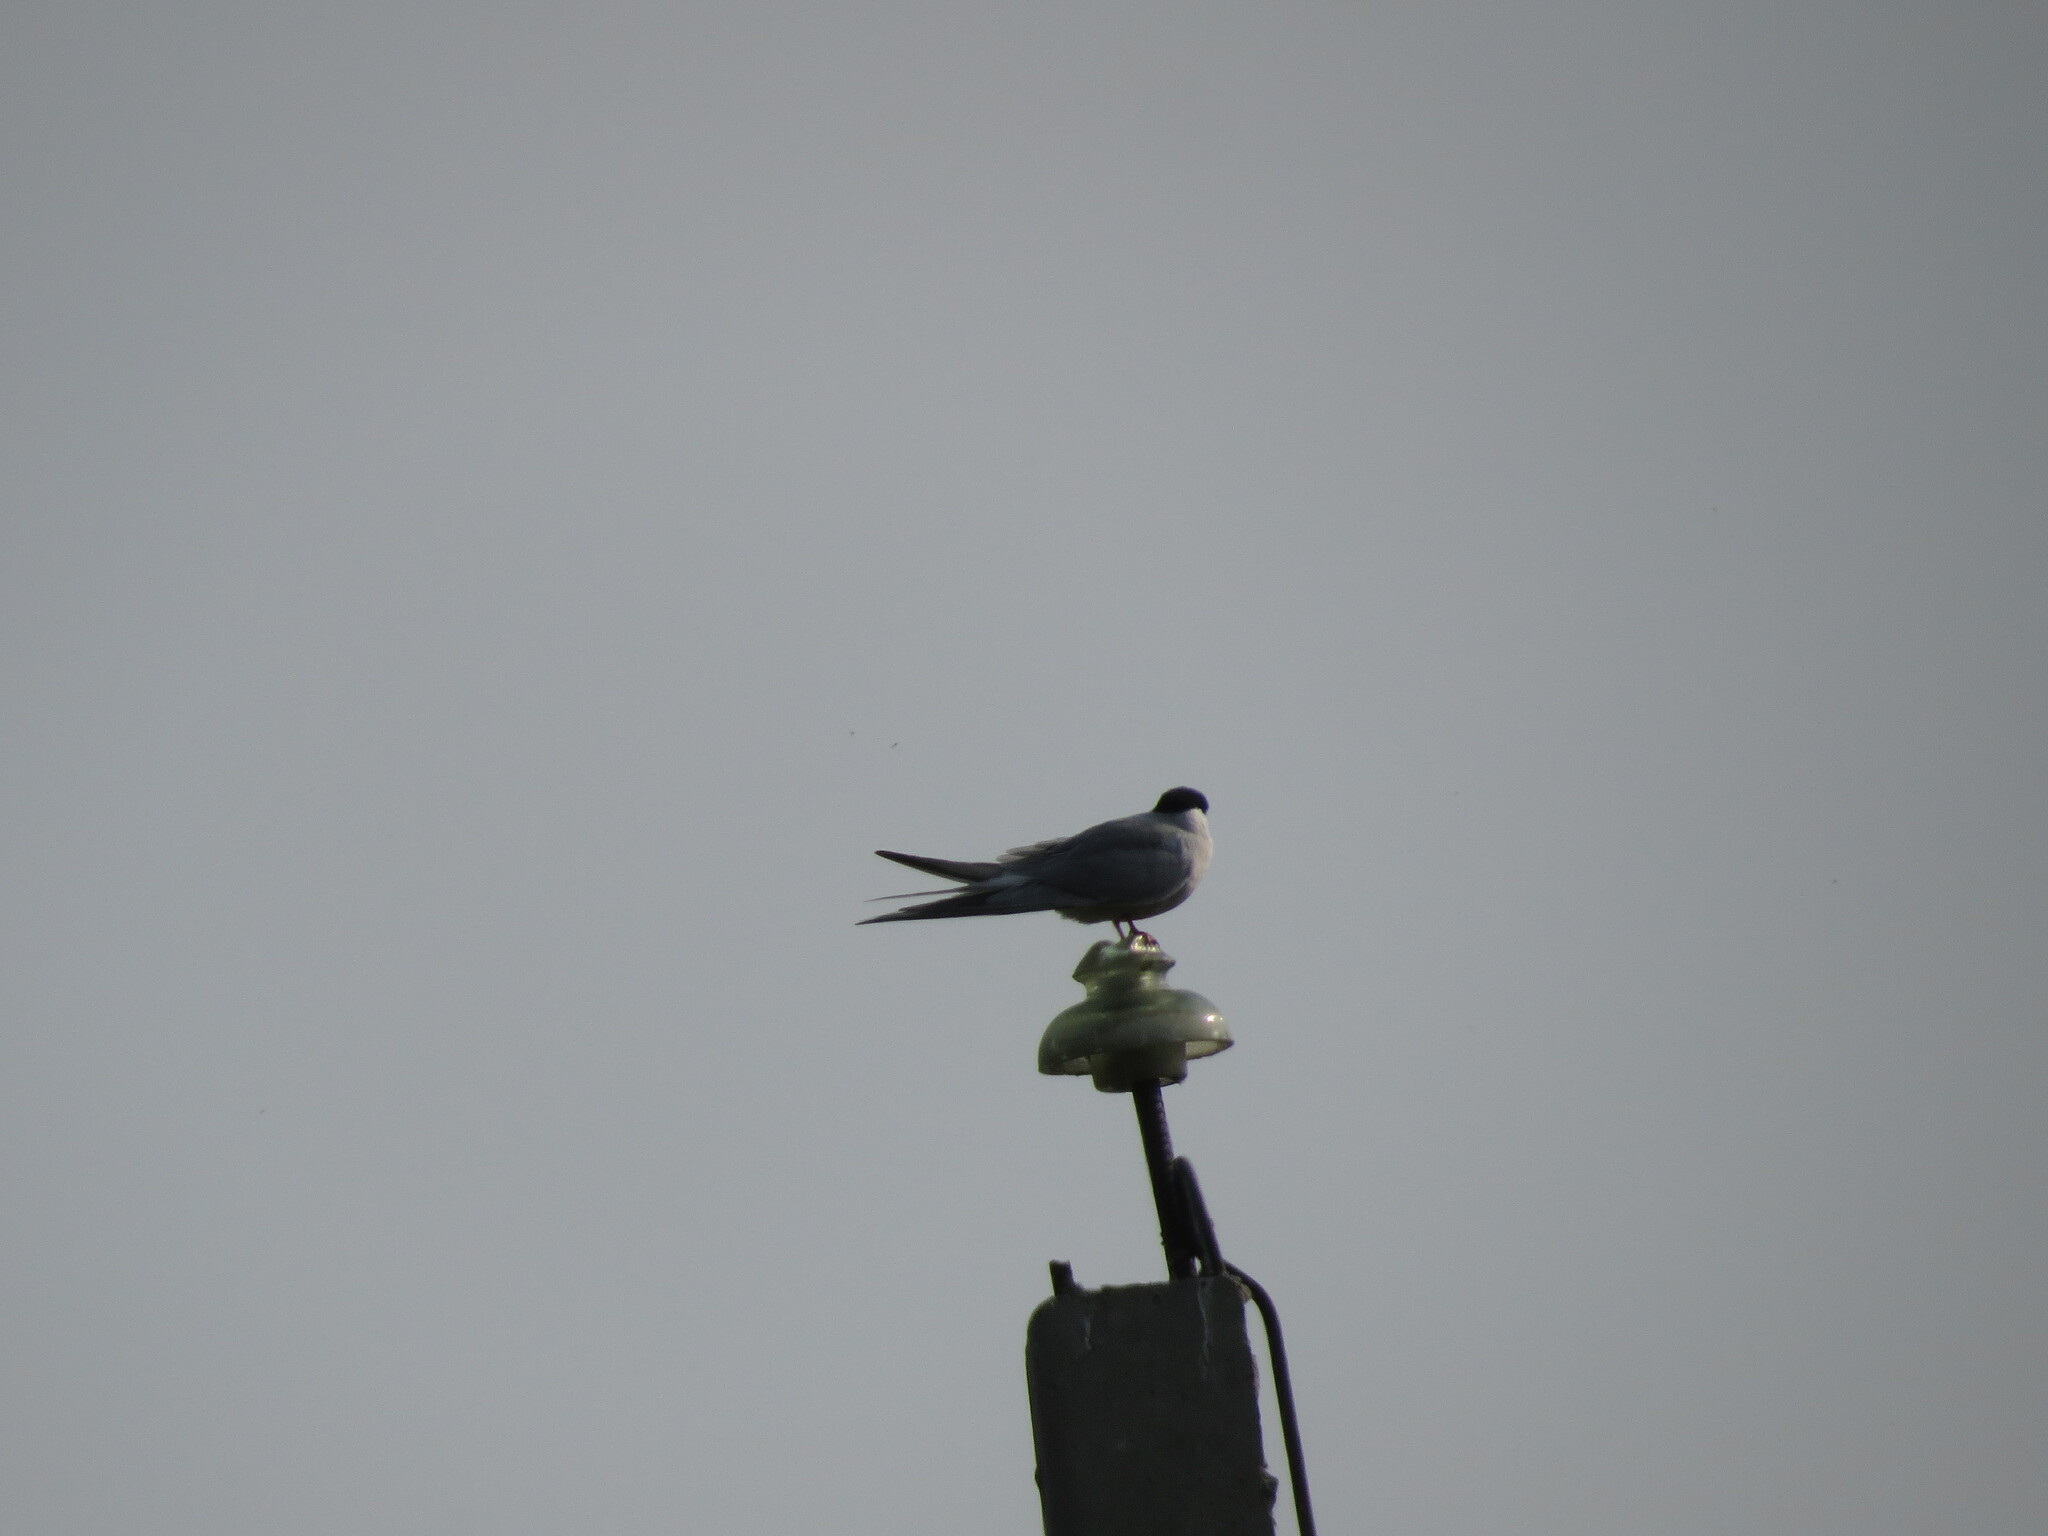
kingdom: Animalia
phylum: Chordata
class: Aves
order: Charadriiformes
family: Laridae
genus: Sterna
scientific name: Sterna hirundo
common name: Common tern
